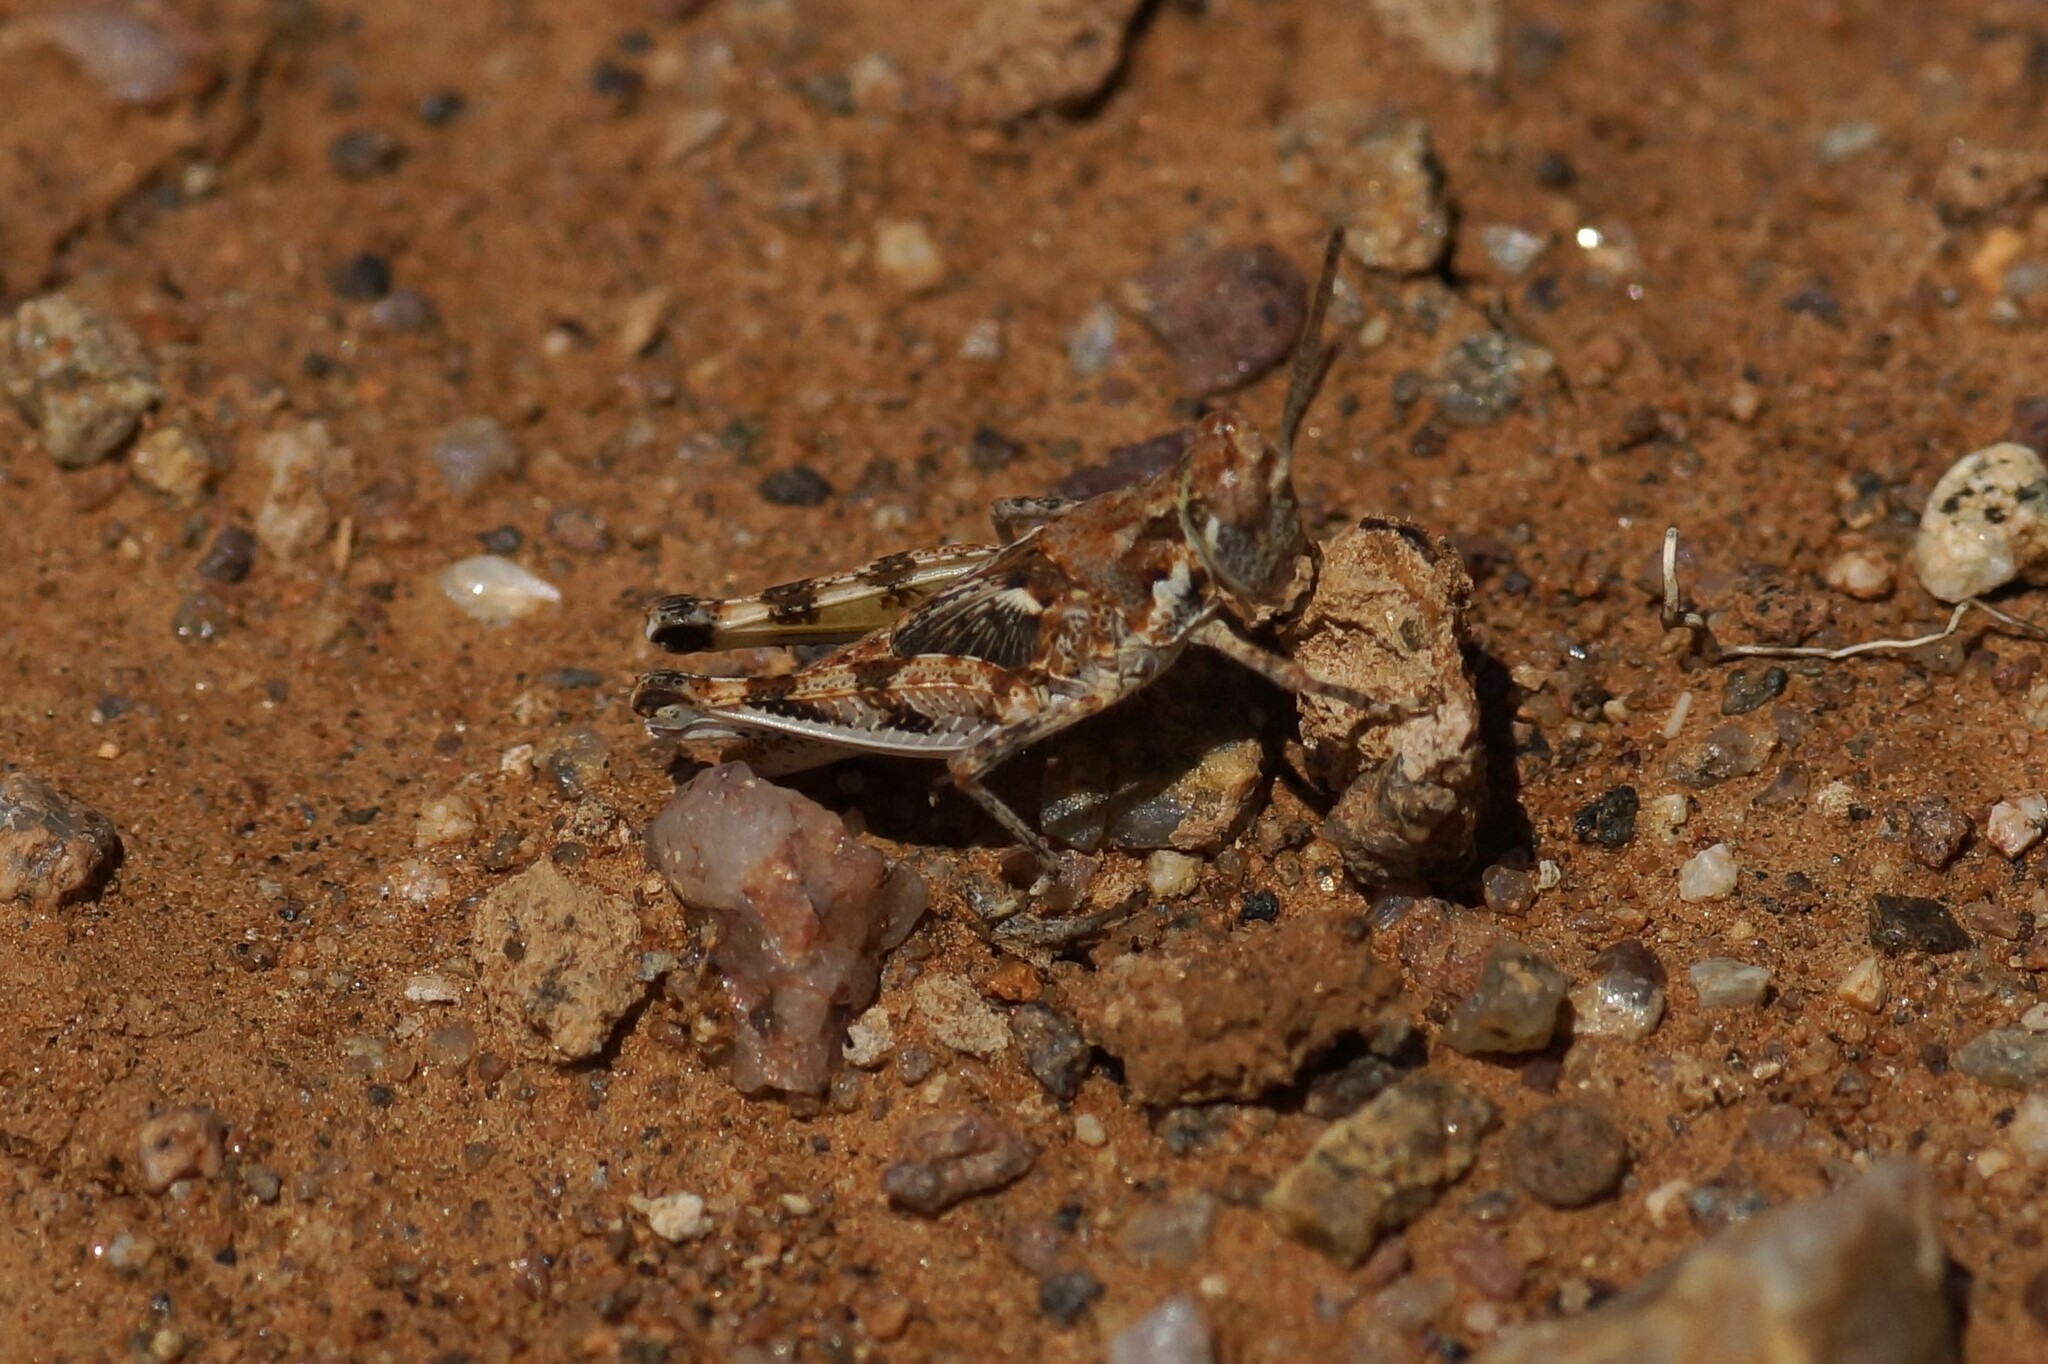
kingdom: Animalia
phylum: Arthropoda
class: Insecta
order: Orthoptera
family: Acrididae
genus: Urnisa
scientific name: Urnisa guttulosa
